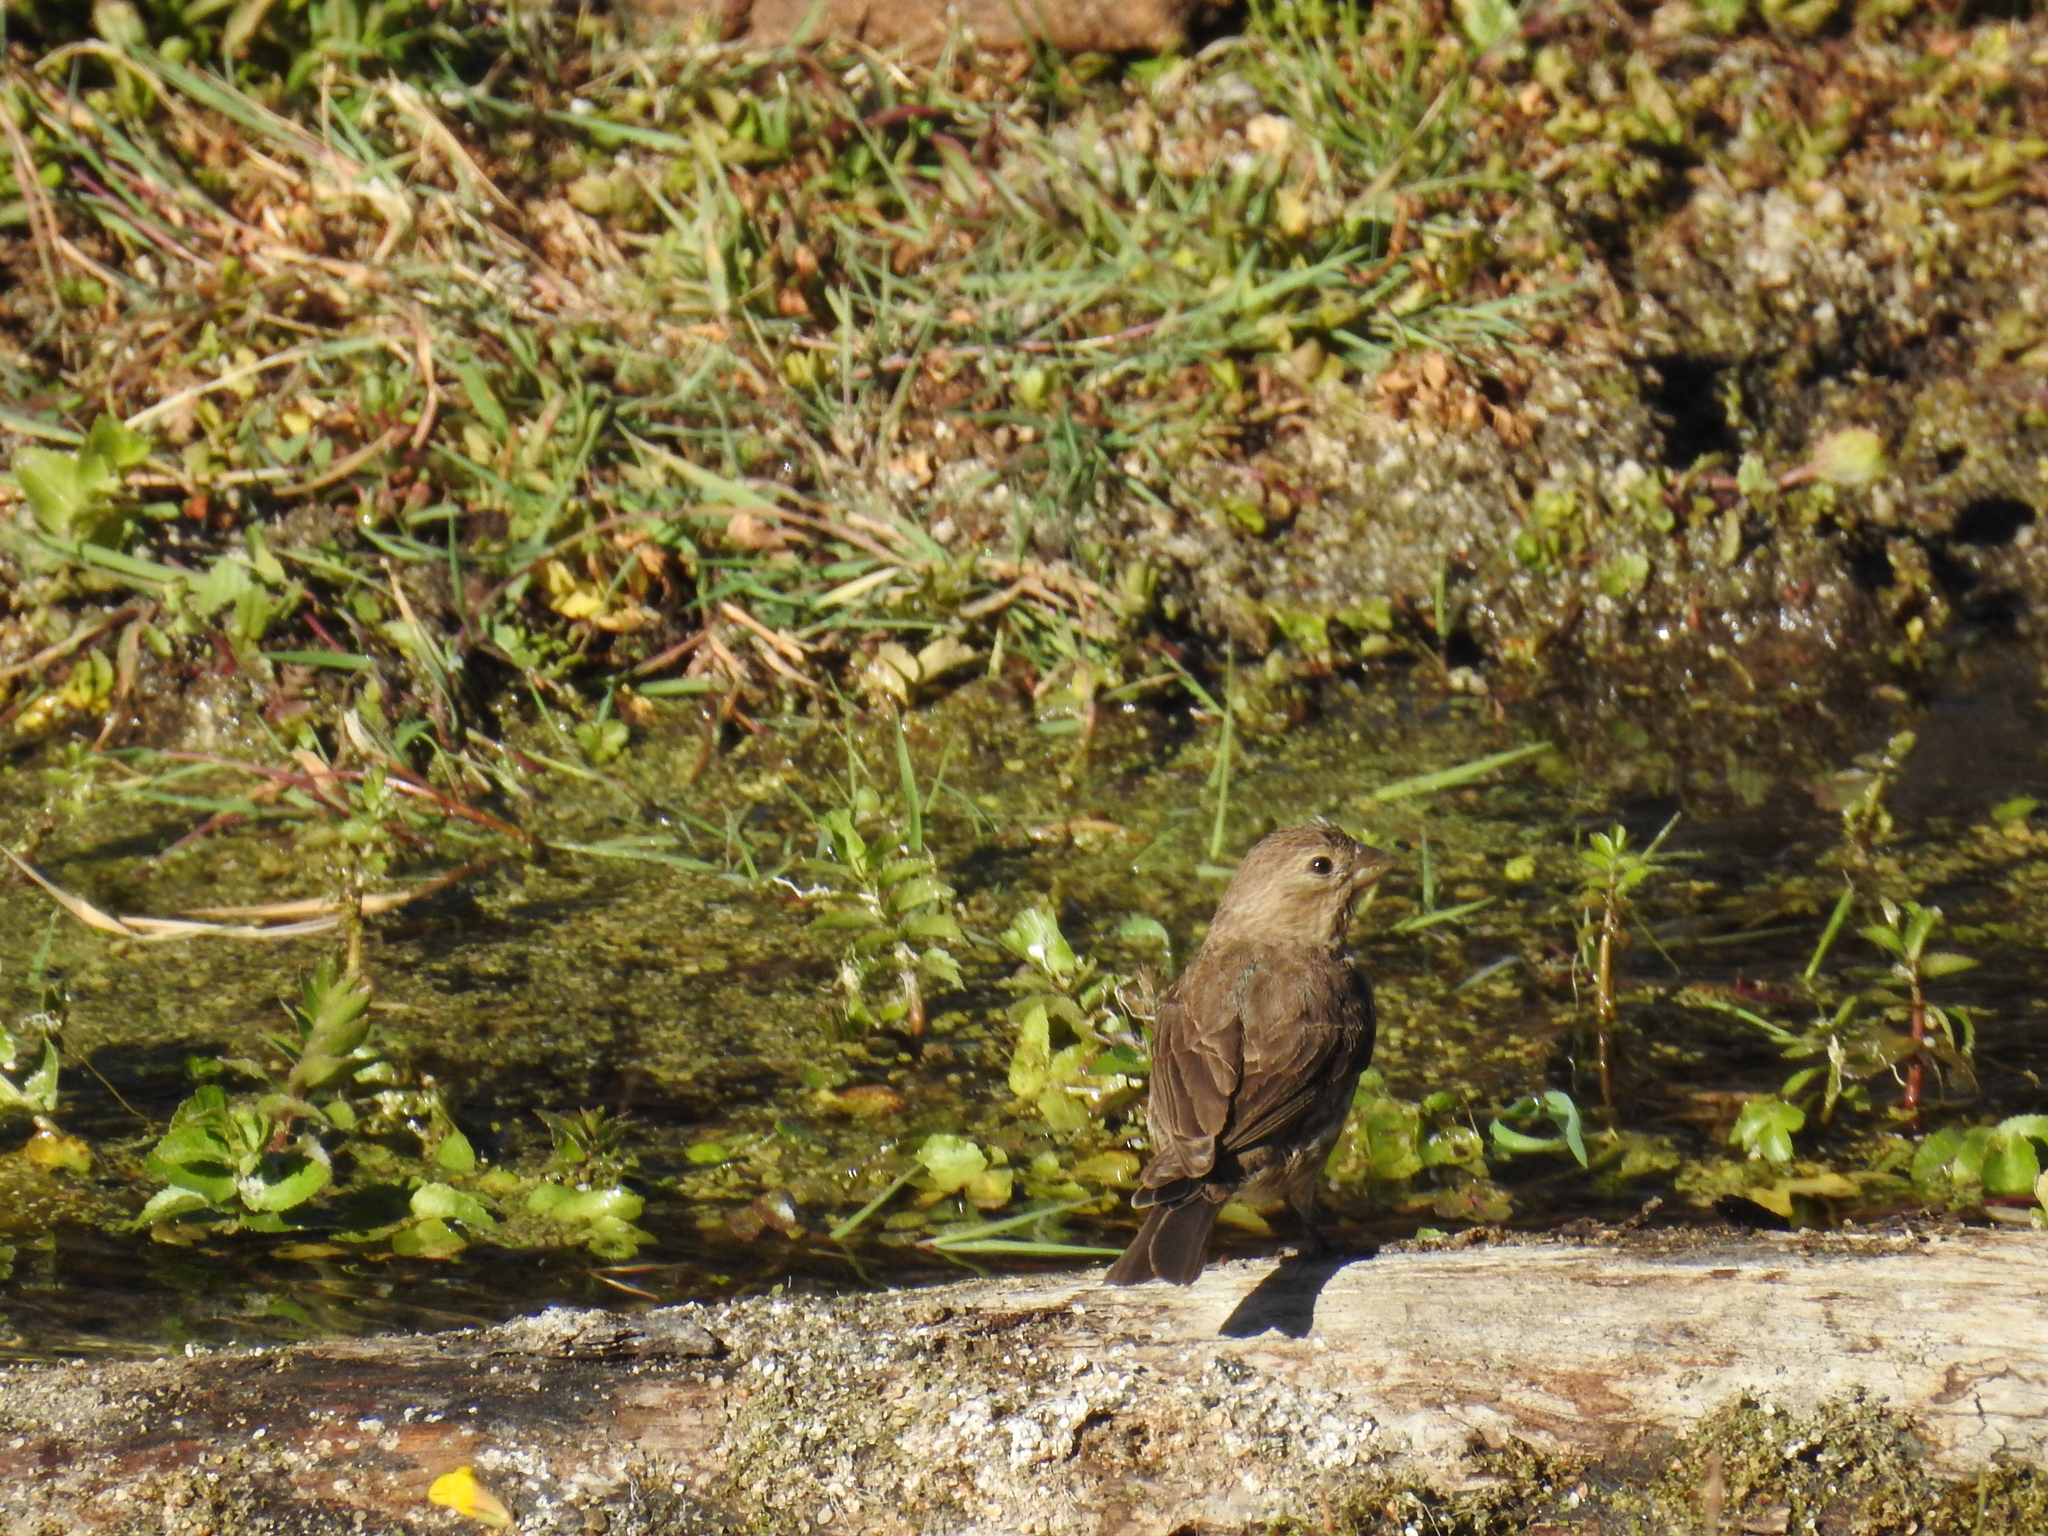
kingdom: Animalia
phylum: Chordata
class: Aves
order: Passeriformes
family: Fringillidae
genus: Haemorhous
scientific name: Haemorhous mexicanus
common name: House finch
